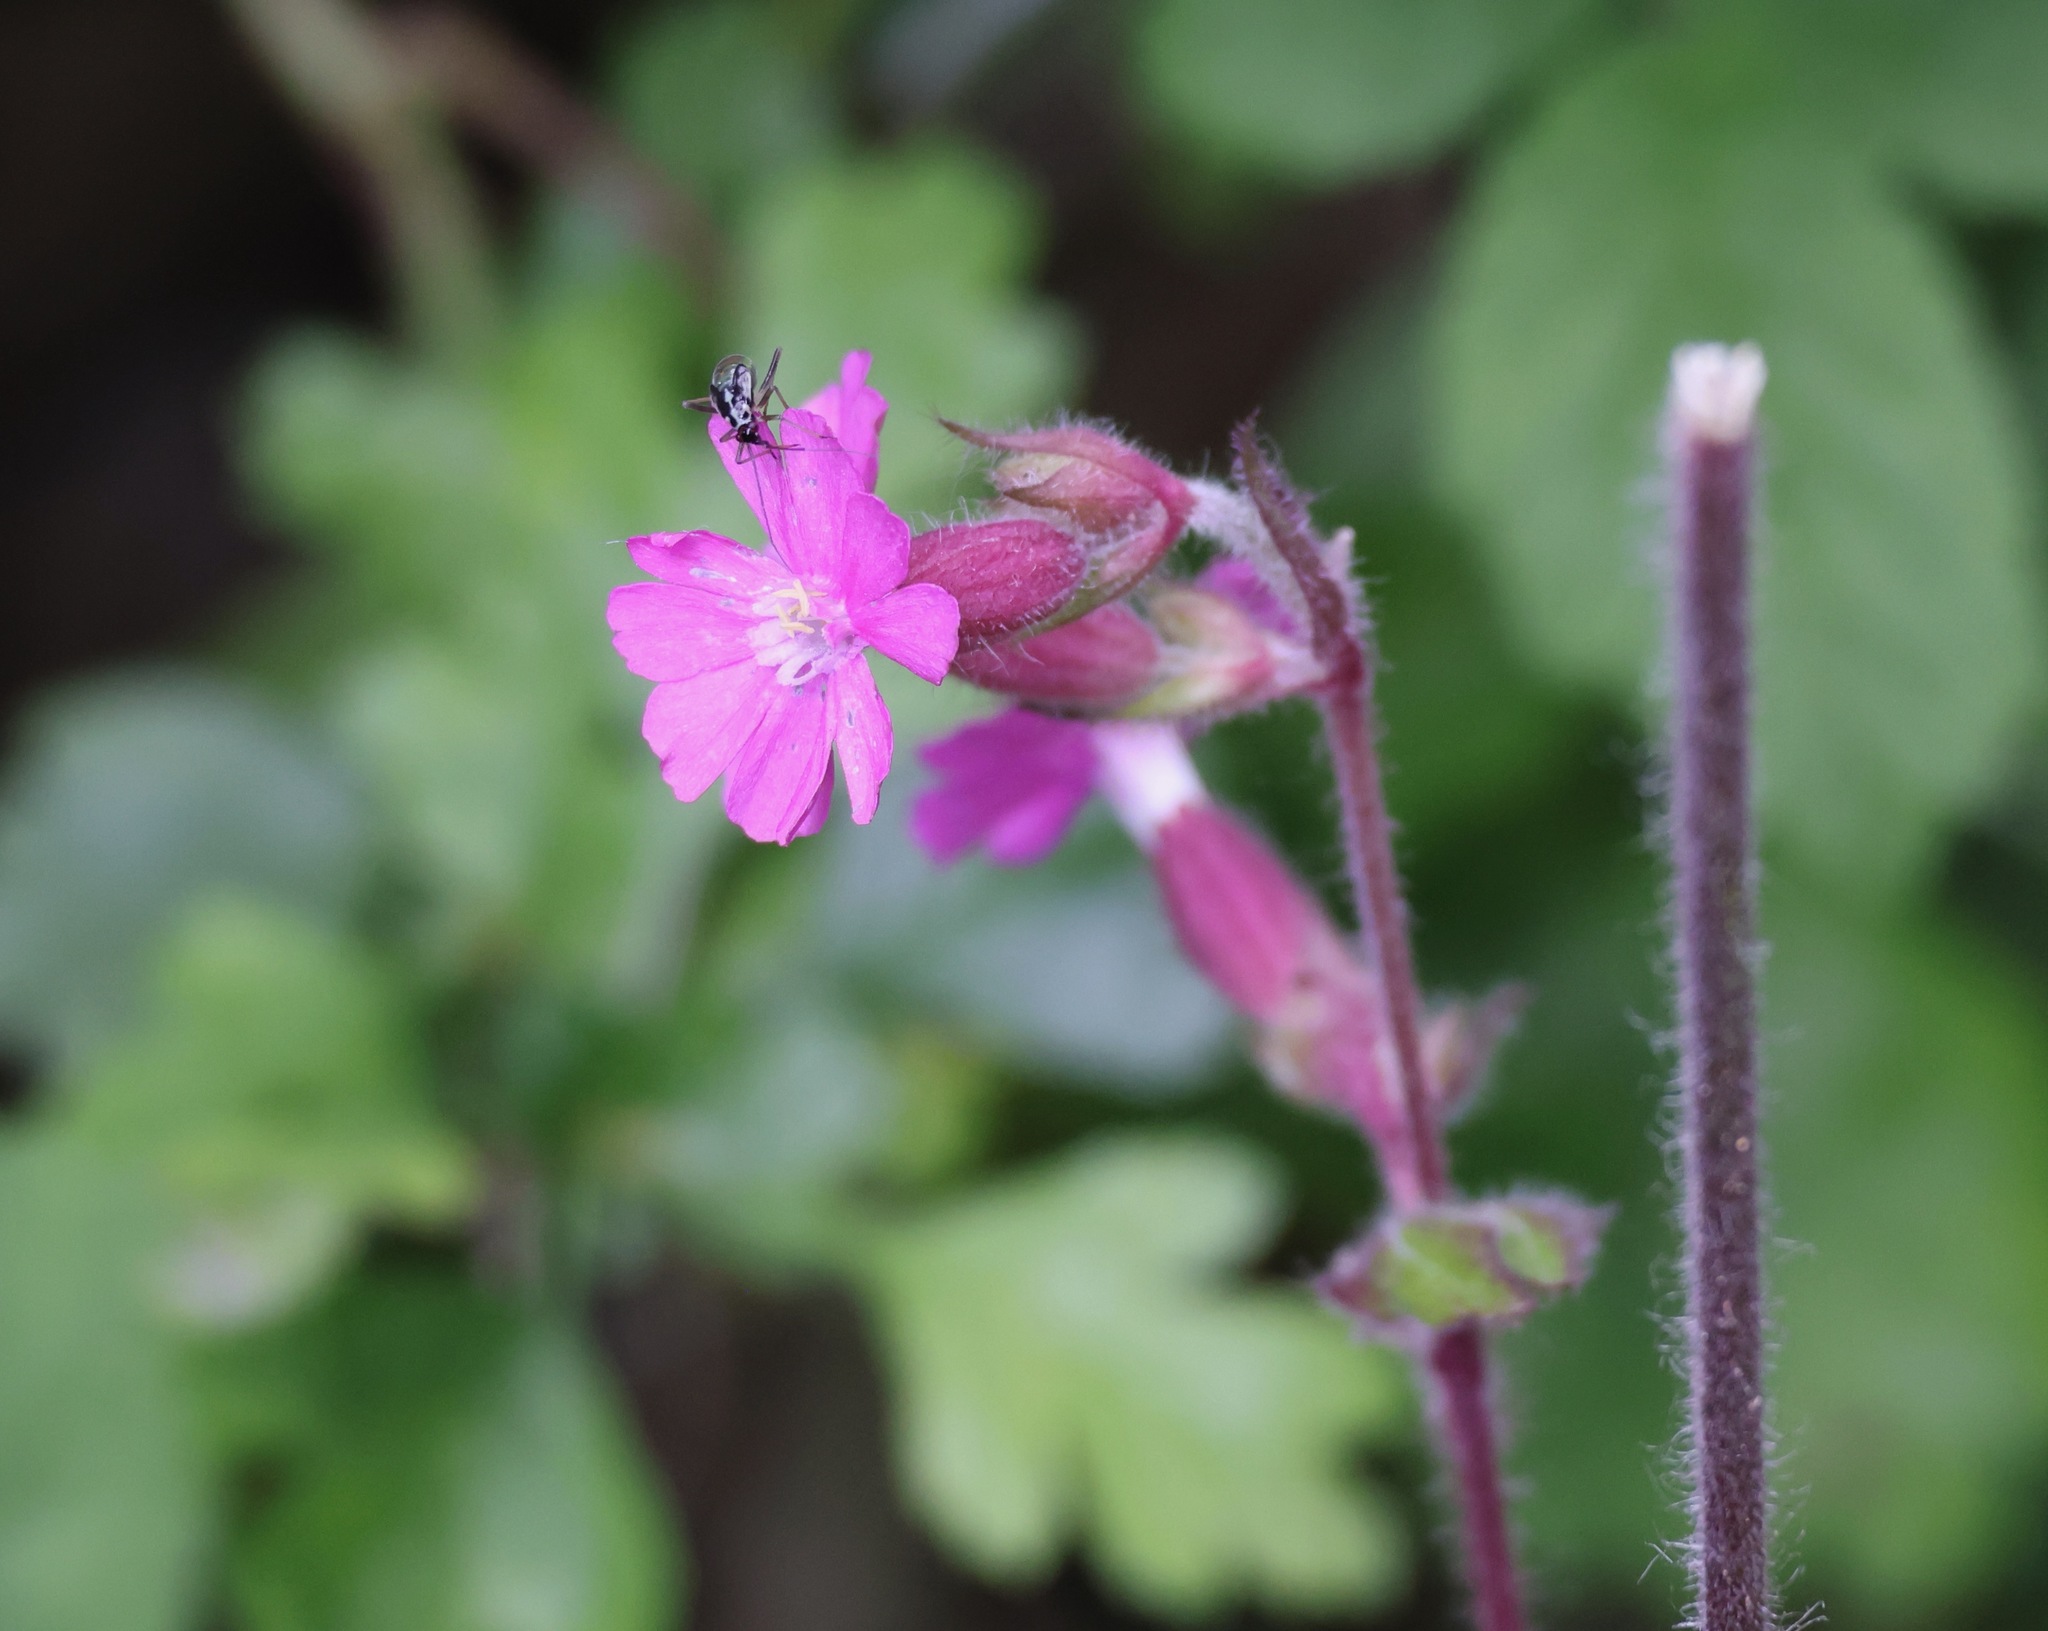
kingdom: Plantae
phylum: Tracheophyta
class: Magnoliopsida
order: Caryophyllales
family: Caryophyllaceae
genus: Silene
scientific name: Silene dioica
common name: Red campion
